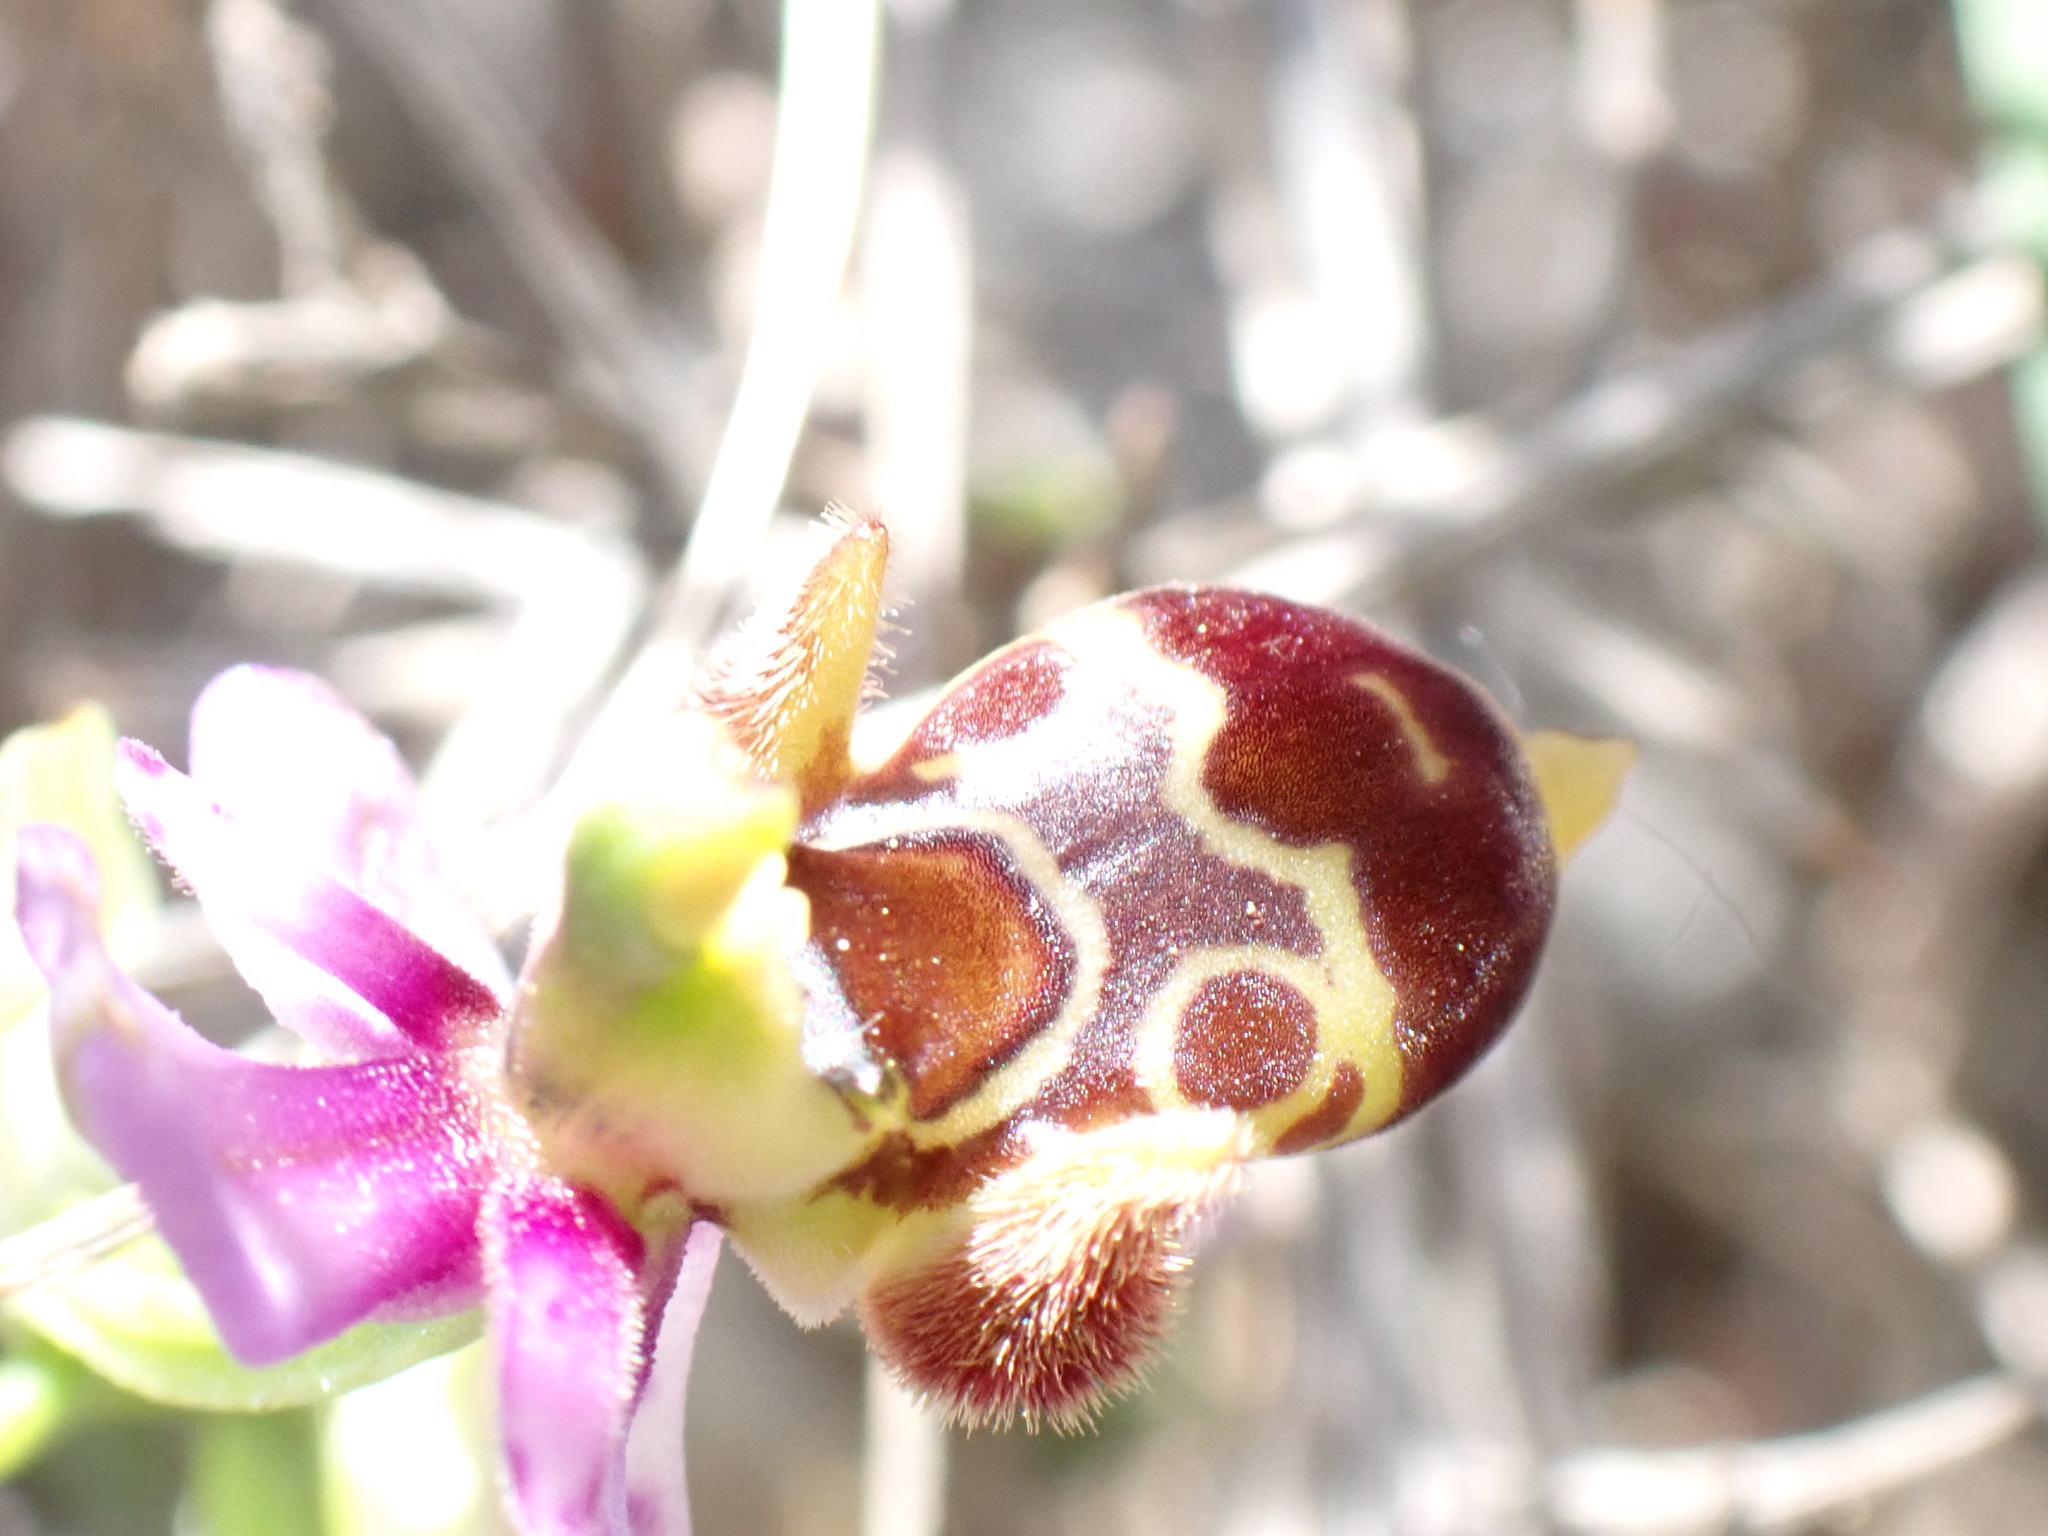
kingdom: Plantae
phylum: Tracheophyta
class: Liliopsida
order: Asparagales
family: Orchidaceae
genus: Ophrys
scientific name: Ophrys scolopax
